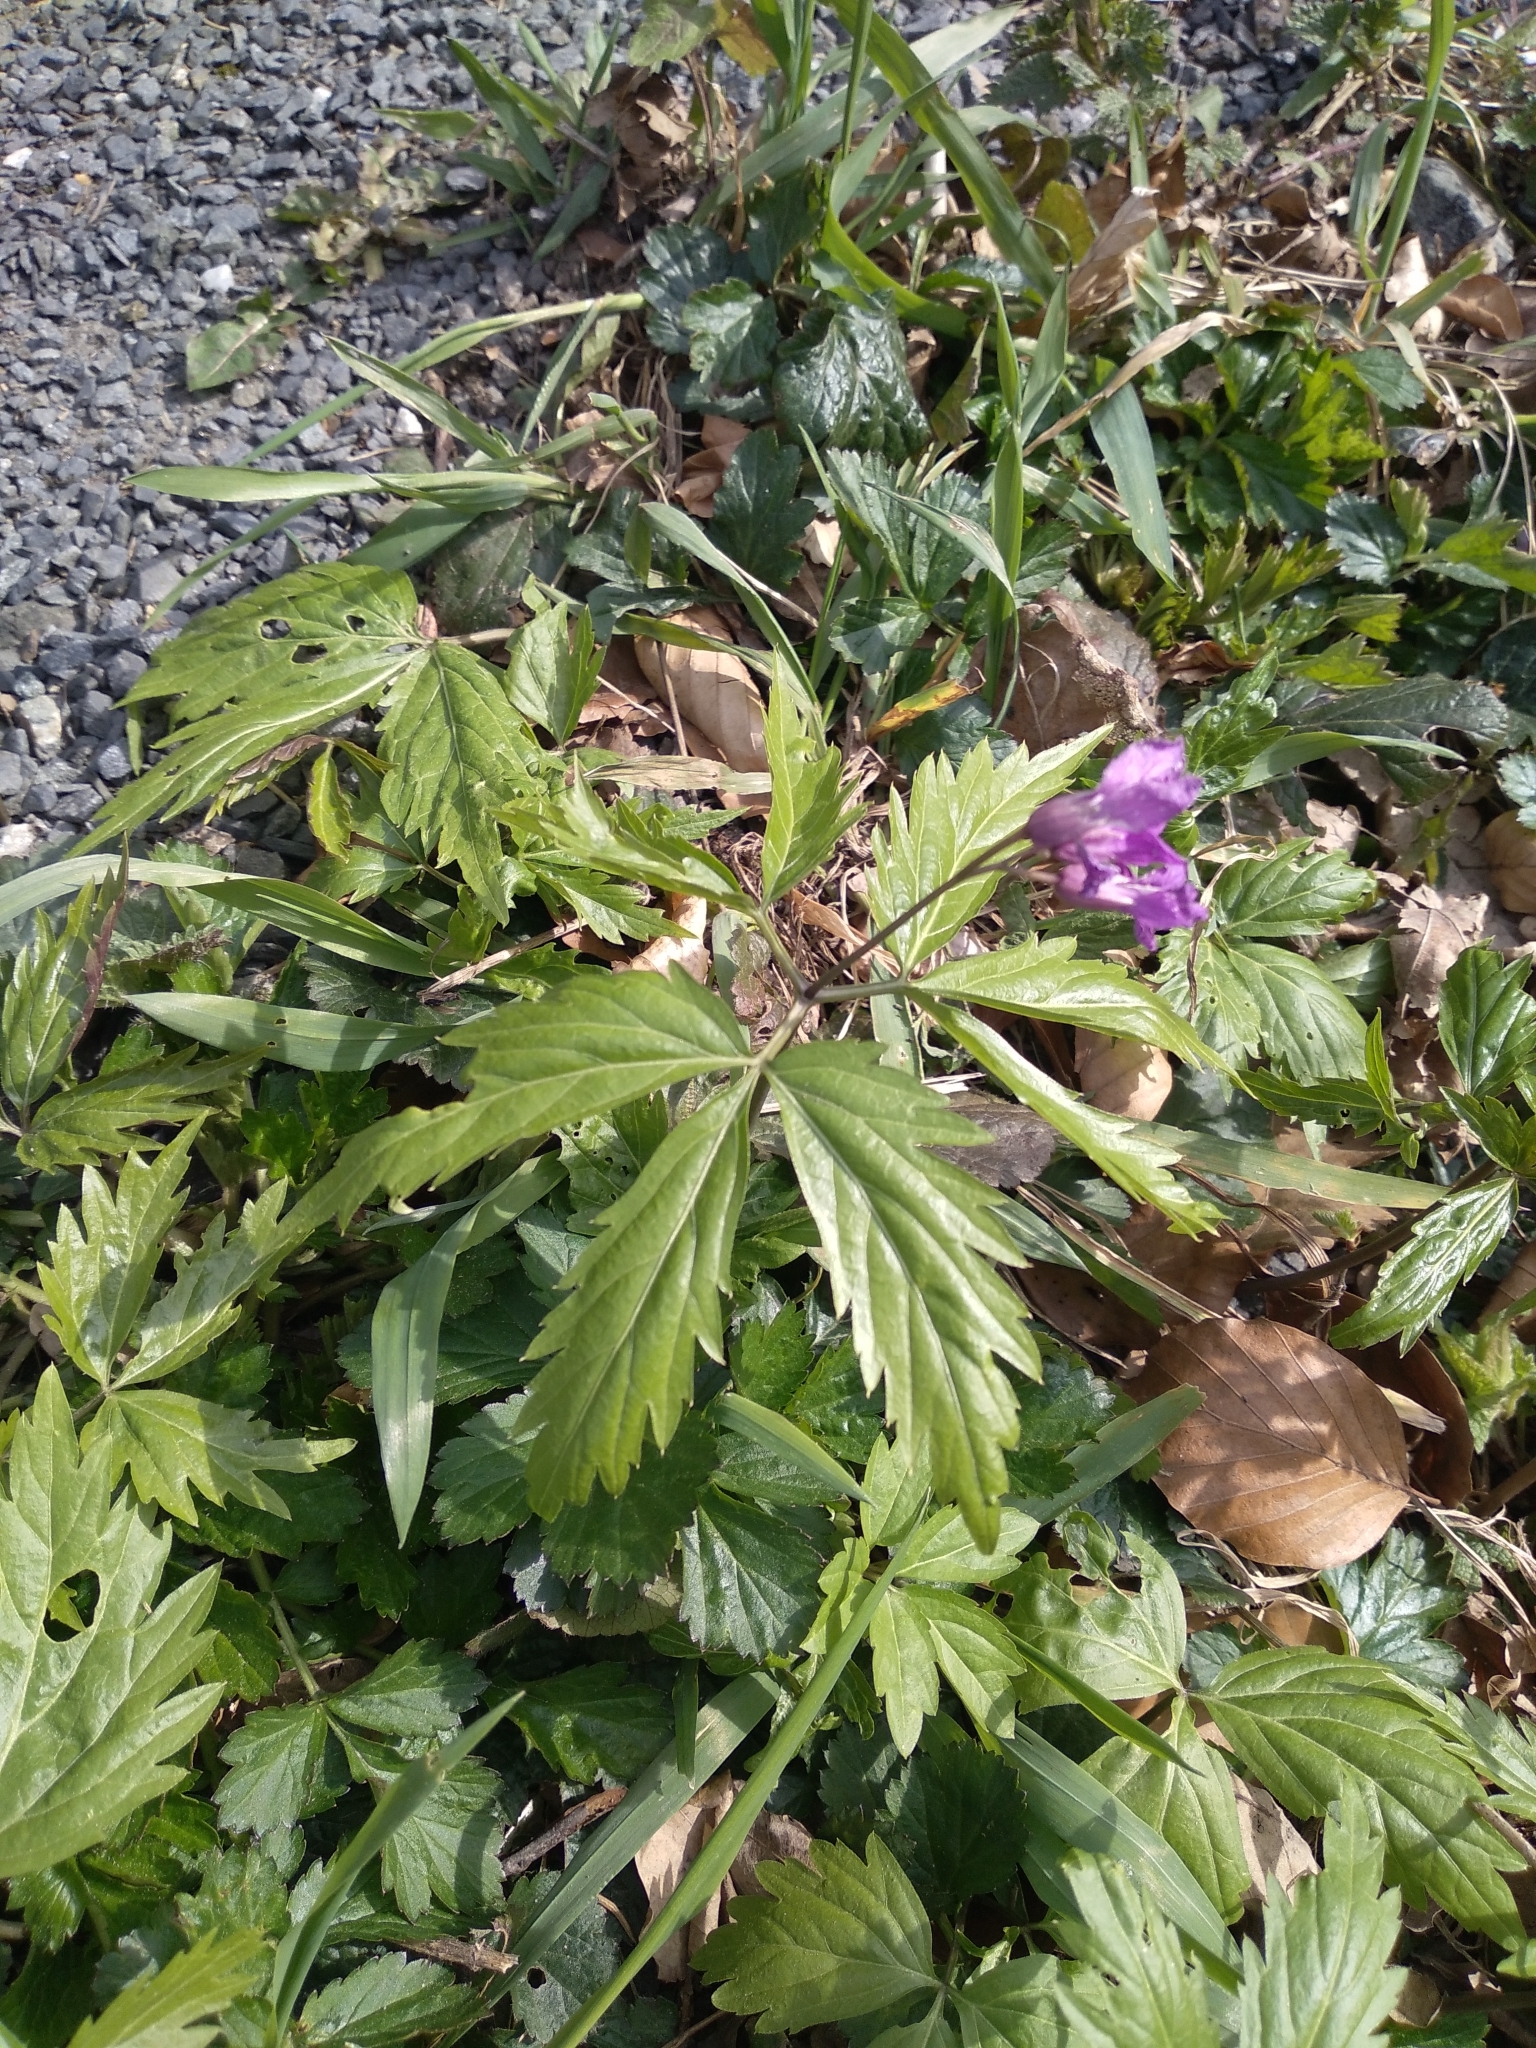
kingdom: Plantae
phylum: Tracheophyta
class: Magnoliopsida
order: Brassicales
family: Brassicaceae
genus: Cardamine
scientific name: Cardamine glanduligera
